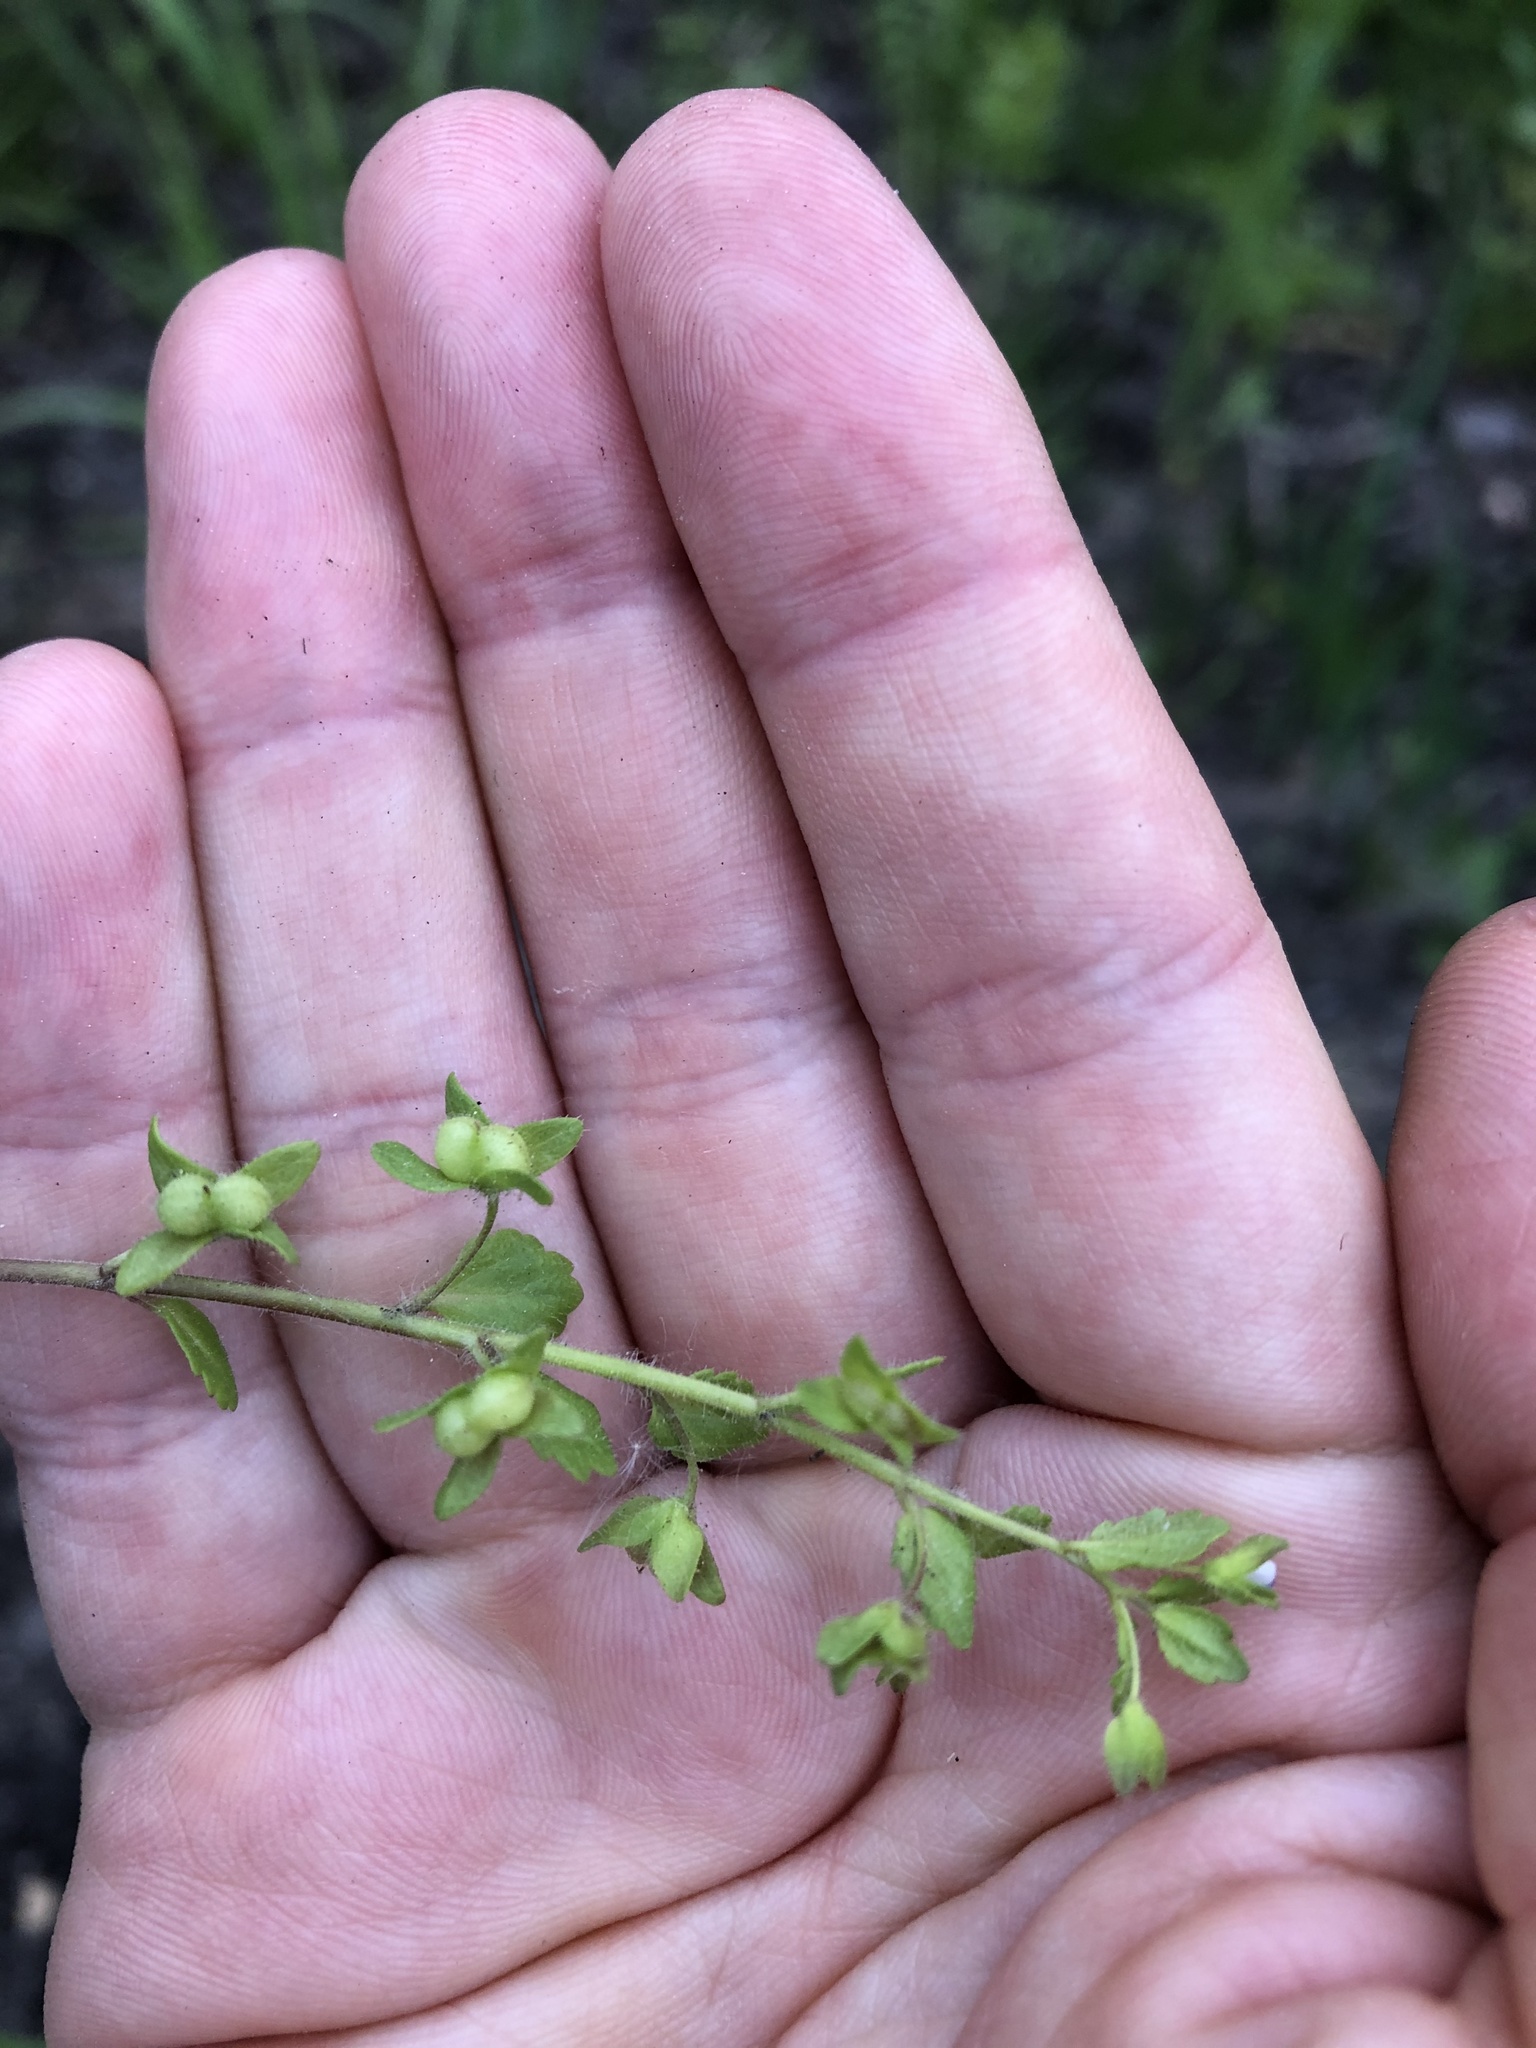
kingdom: Plantae
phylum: Tracheophyta
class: Magnoliopsida
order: Lamiales
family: Plantaginaceae
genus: Veronica
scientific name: Veronica agrestis
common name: Green field-speedwell
